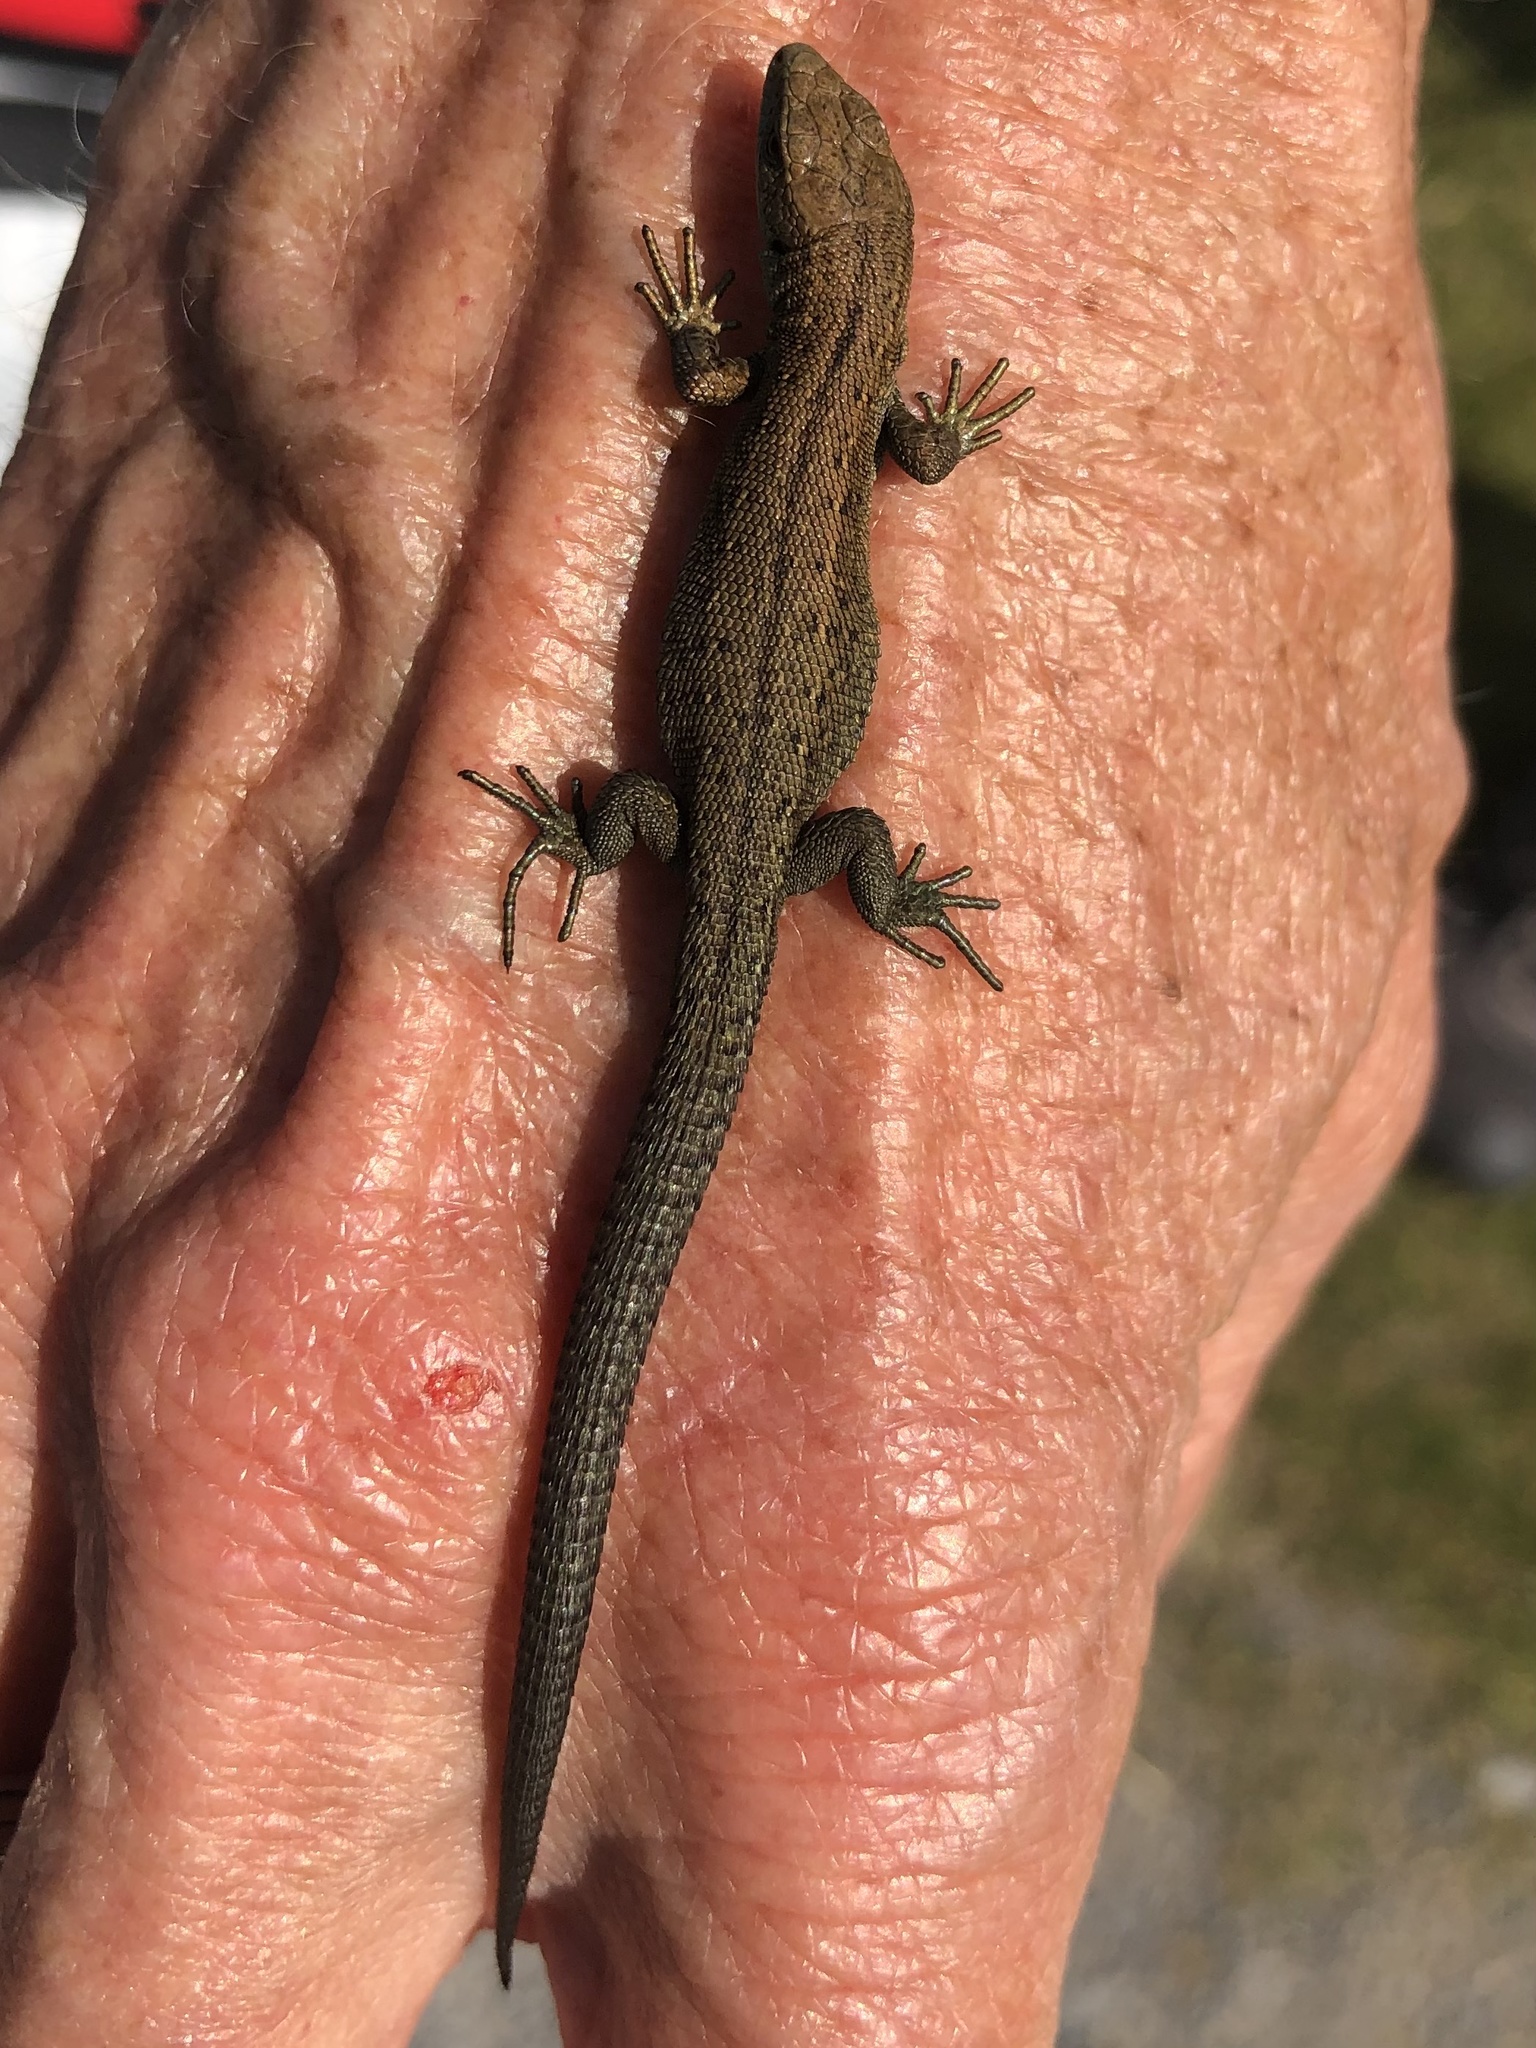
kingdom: Animalia
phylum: Chordata
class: Squamata
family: Lacertidae
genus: Zootoca
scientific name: Zootoca vivipara
